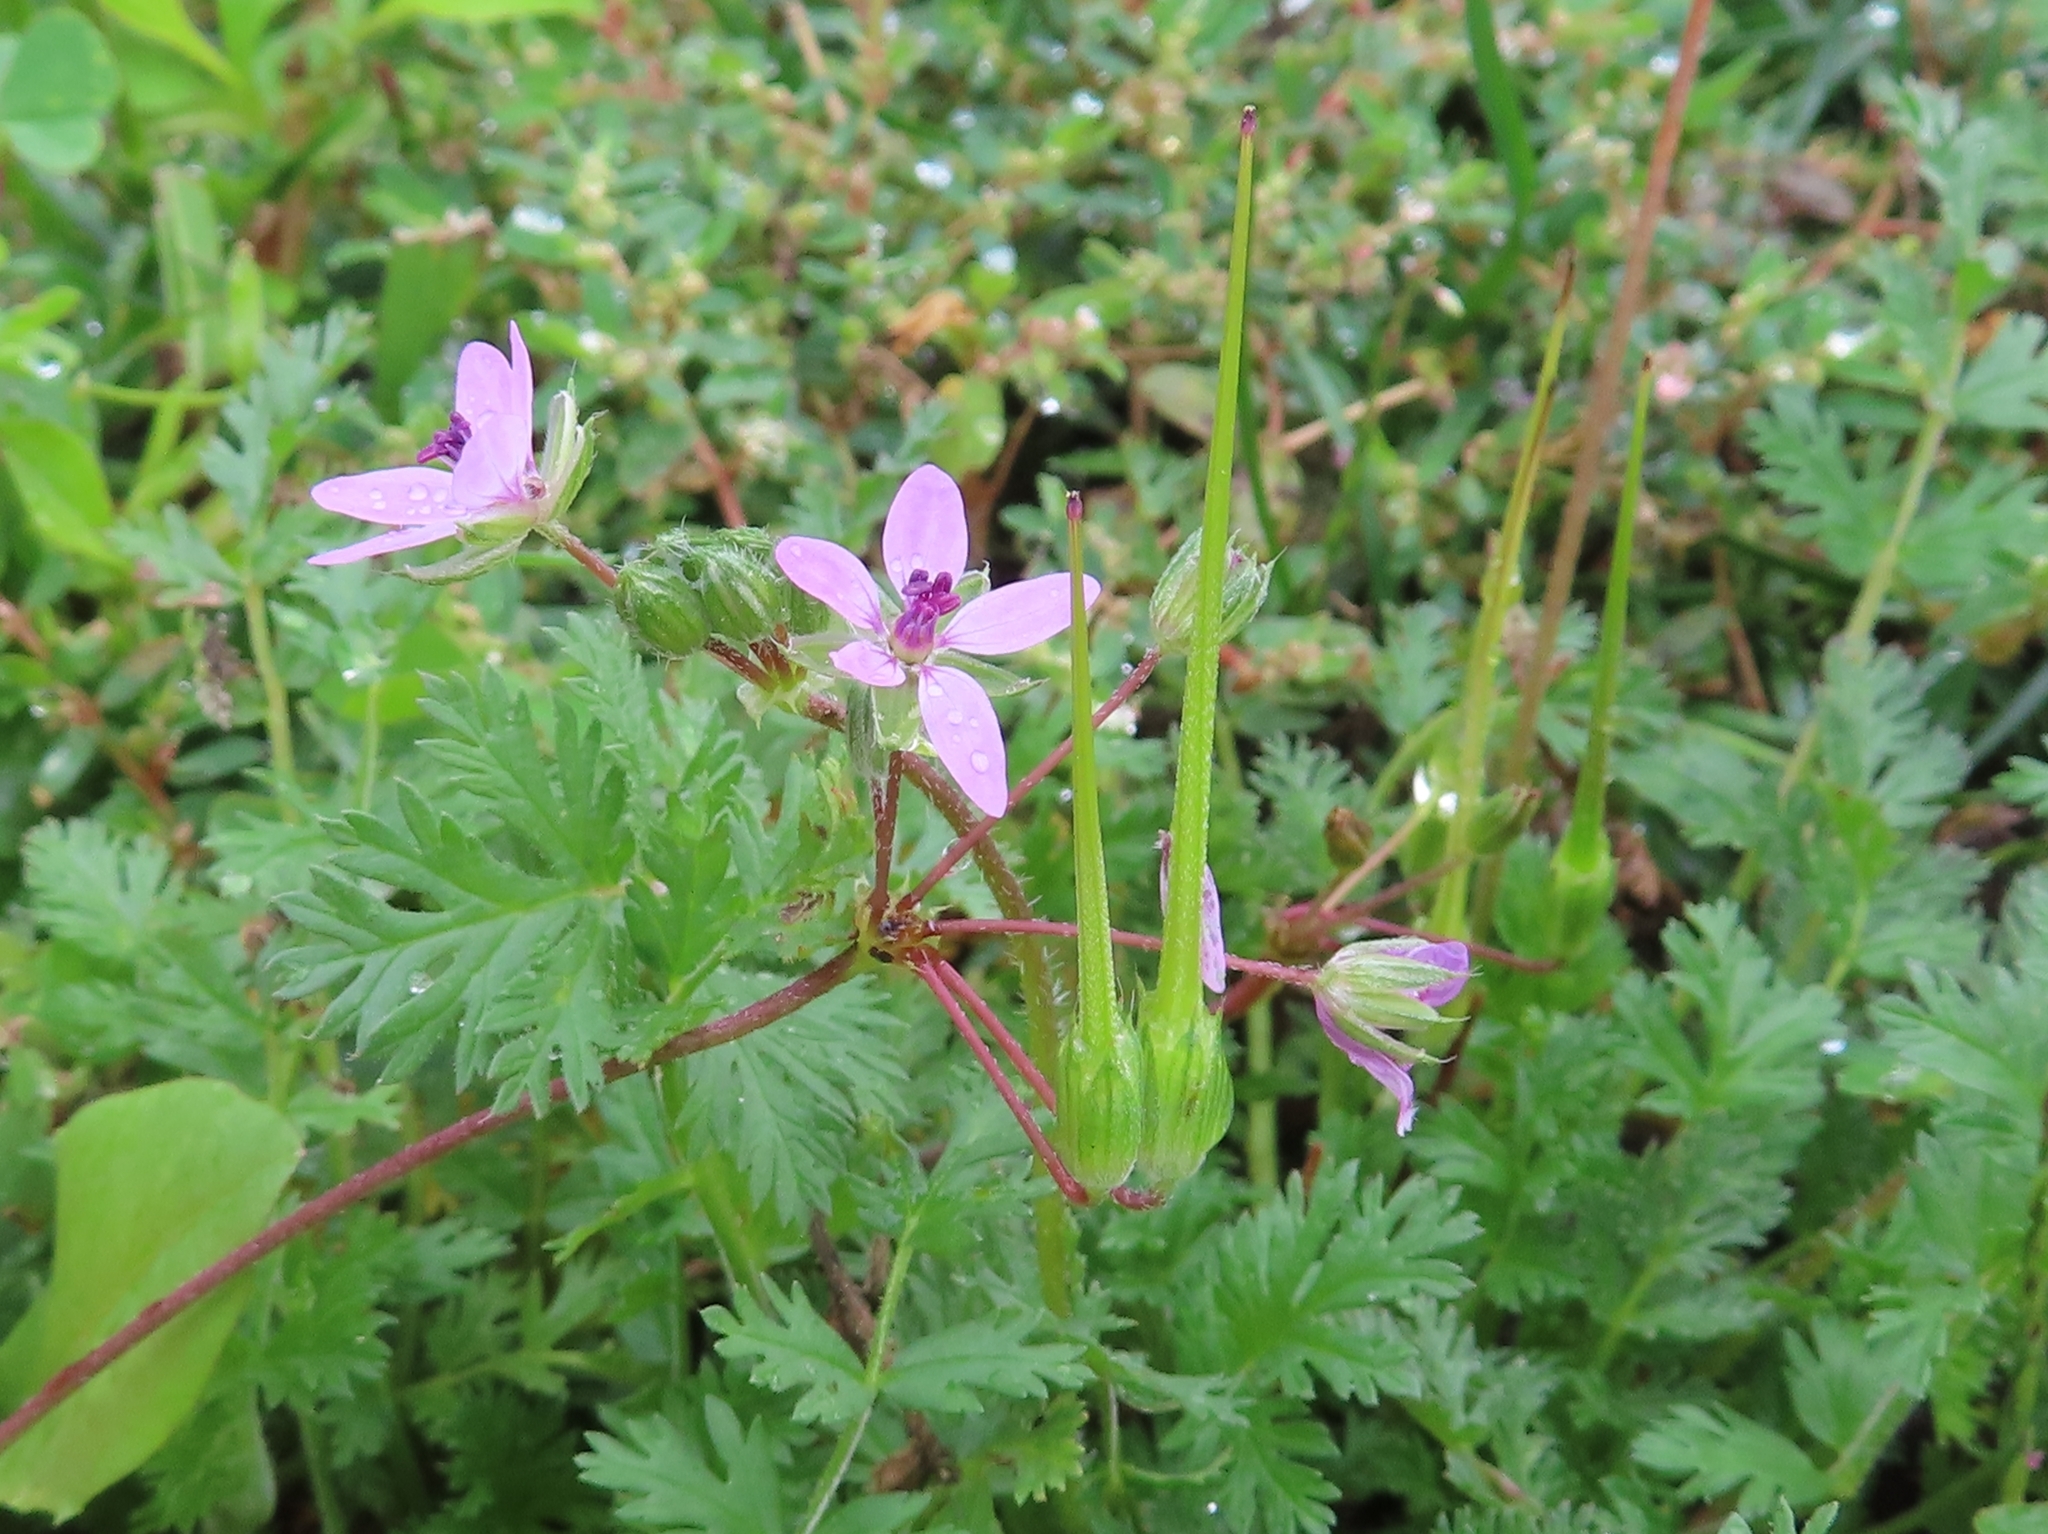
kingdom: Plantae
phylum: Tracheophyta
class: Magnoliopsida
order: Geraniales
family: Geraniaceae
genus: Erodium
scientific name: Erodium cicutarium
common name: Common stork's-bill
